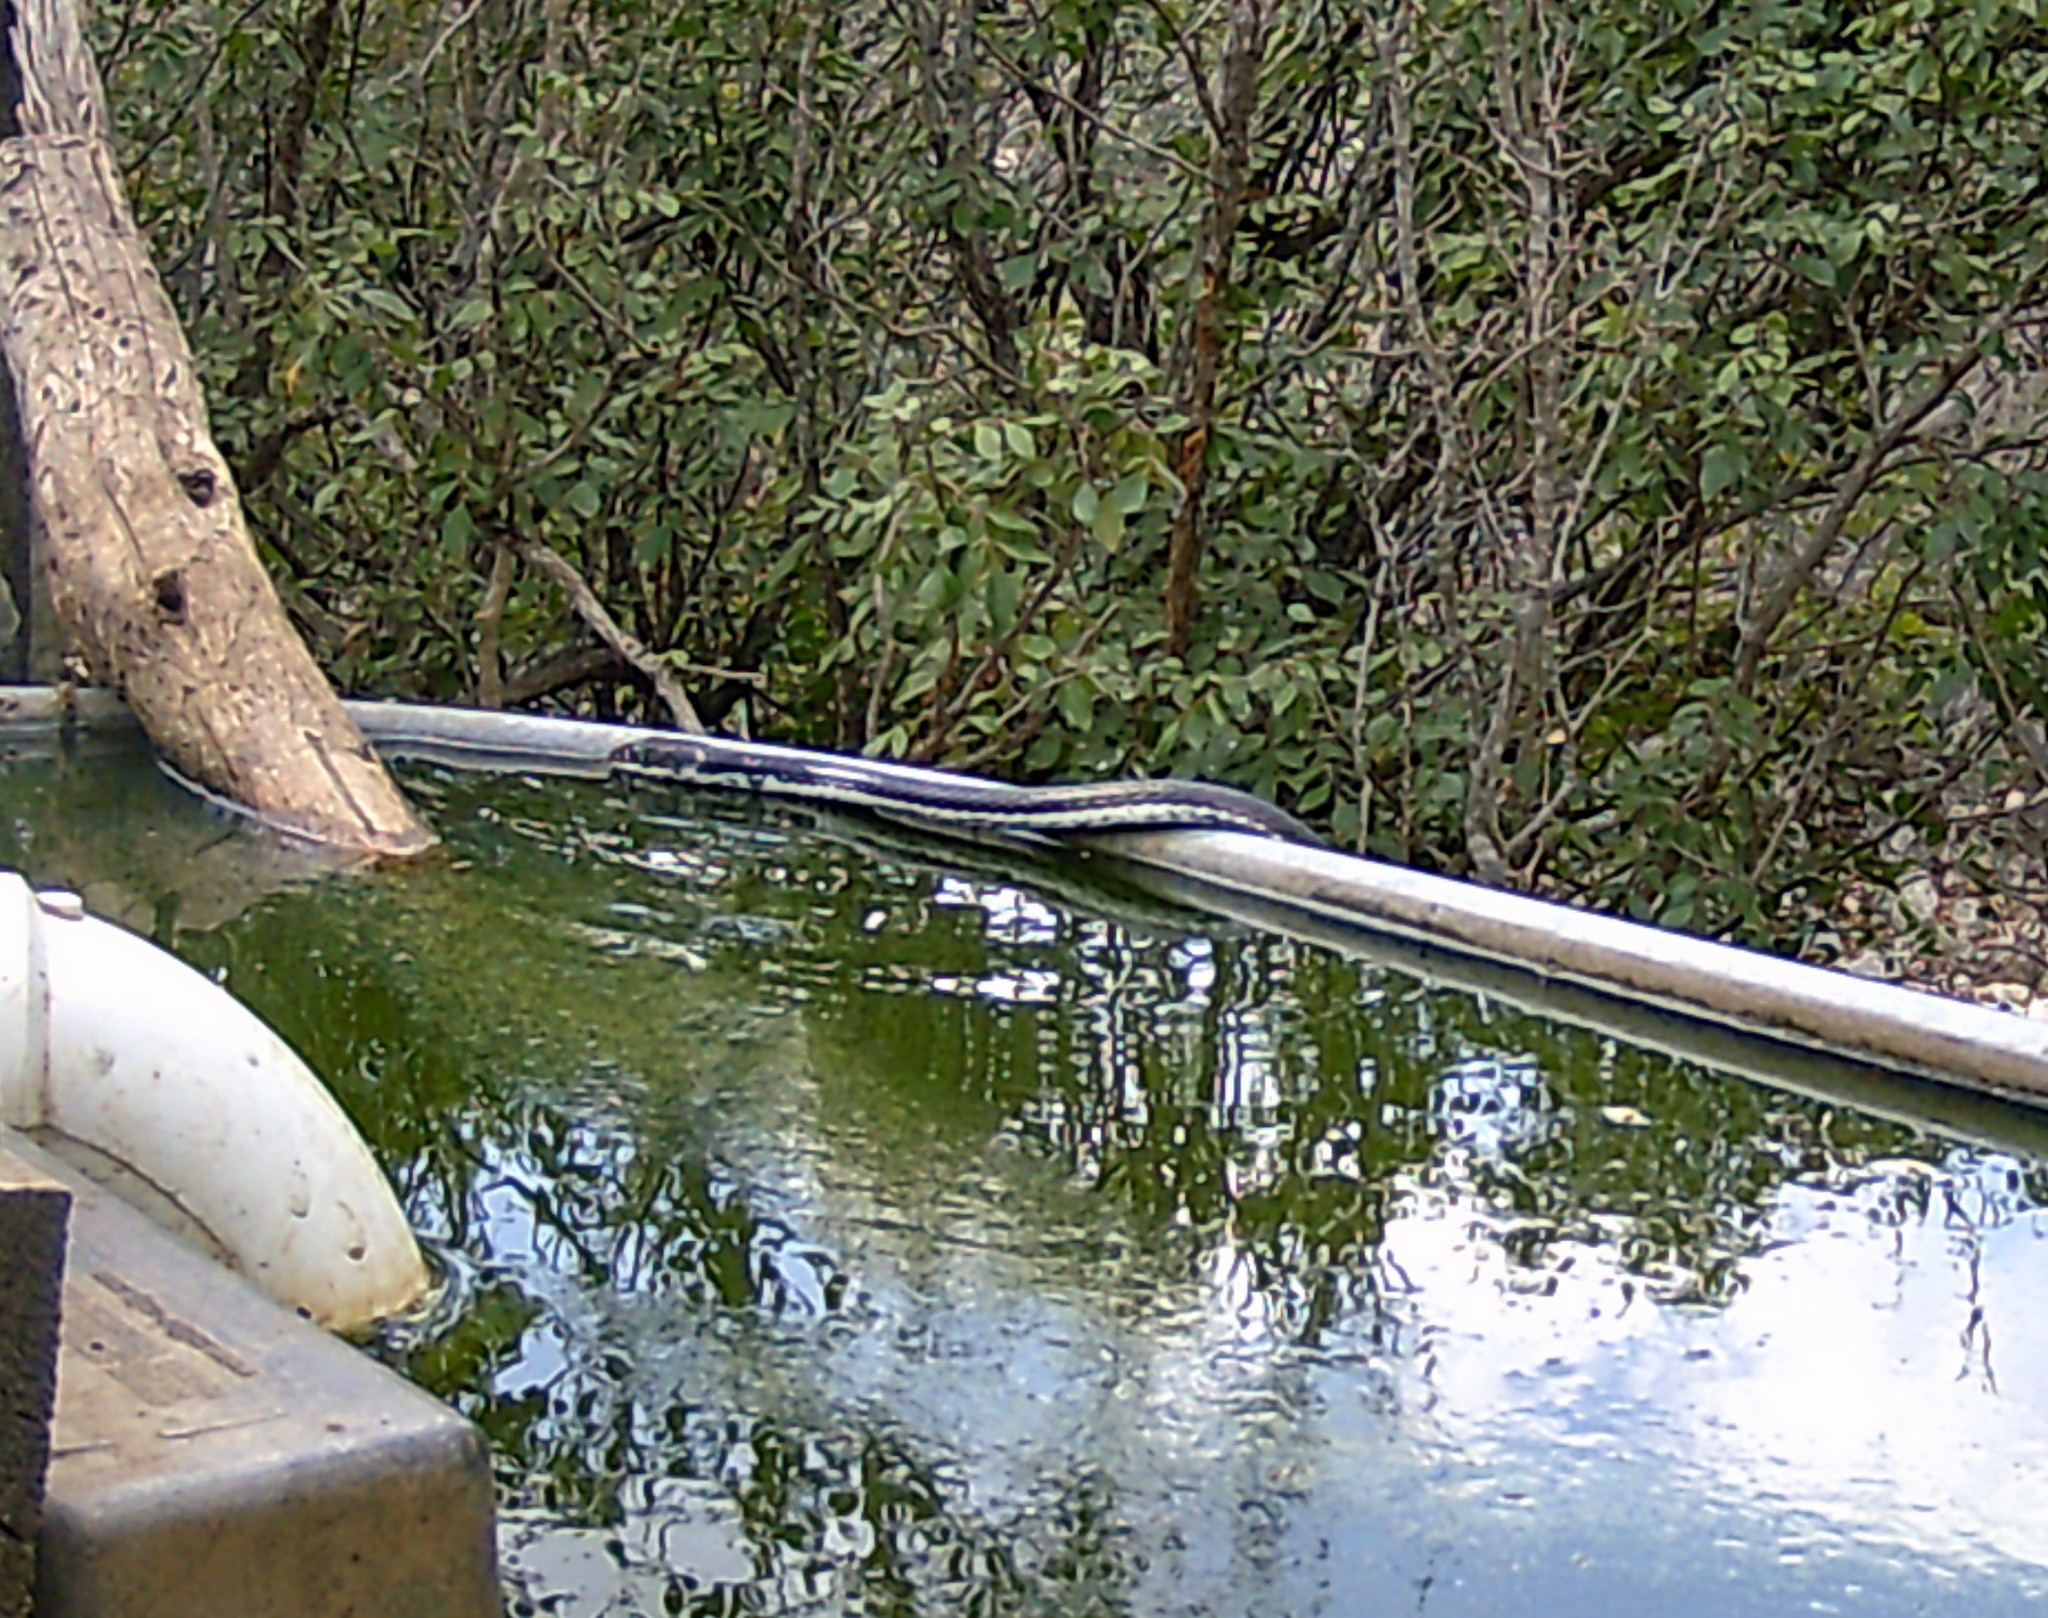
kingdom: Animalia
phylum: Chordata
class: Squamata
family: Colubridae
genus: Masticophis
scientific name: Masticophis taeniatus
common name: Striped whipsnake
